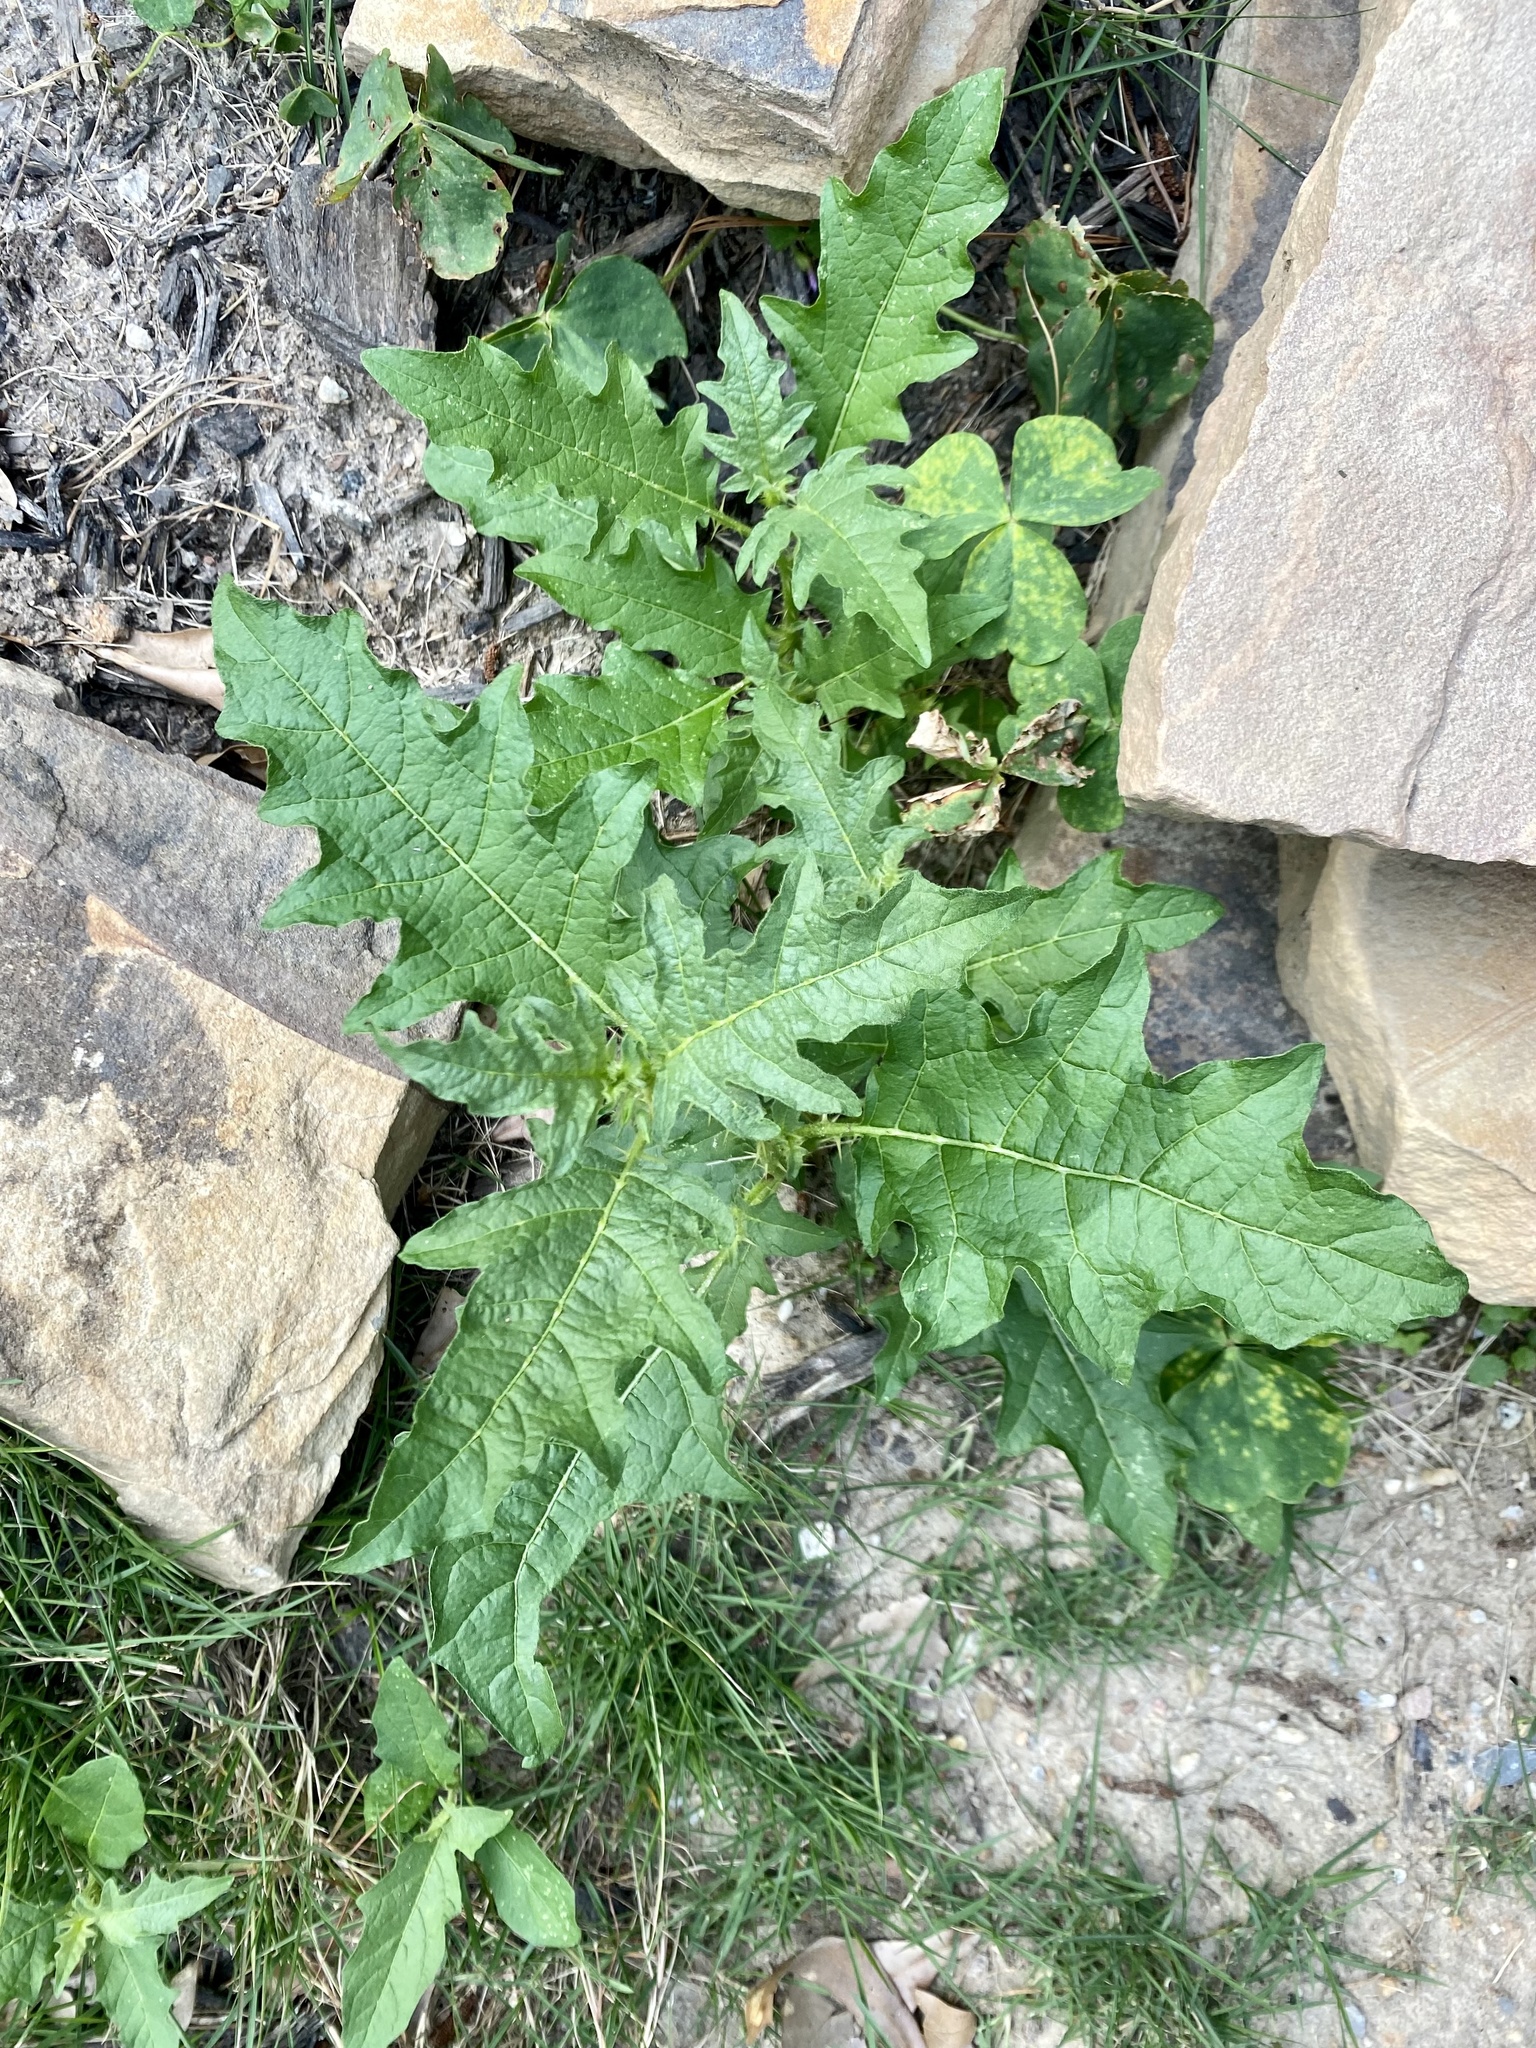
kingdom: Plantae
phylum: Tracheophyta
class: Magnoliopsida
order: Solanales
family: Solanaceae
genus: Solanum
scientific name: Solanum carolinense
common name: Horse-nettle
